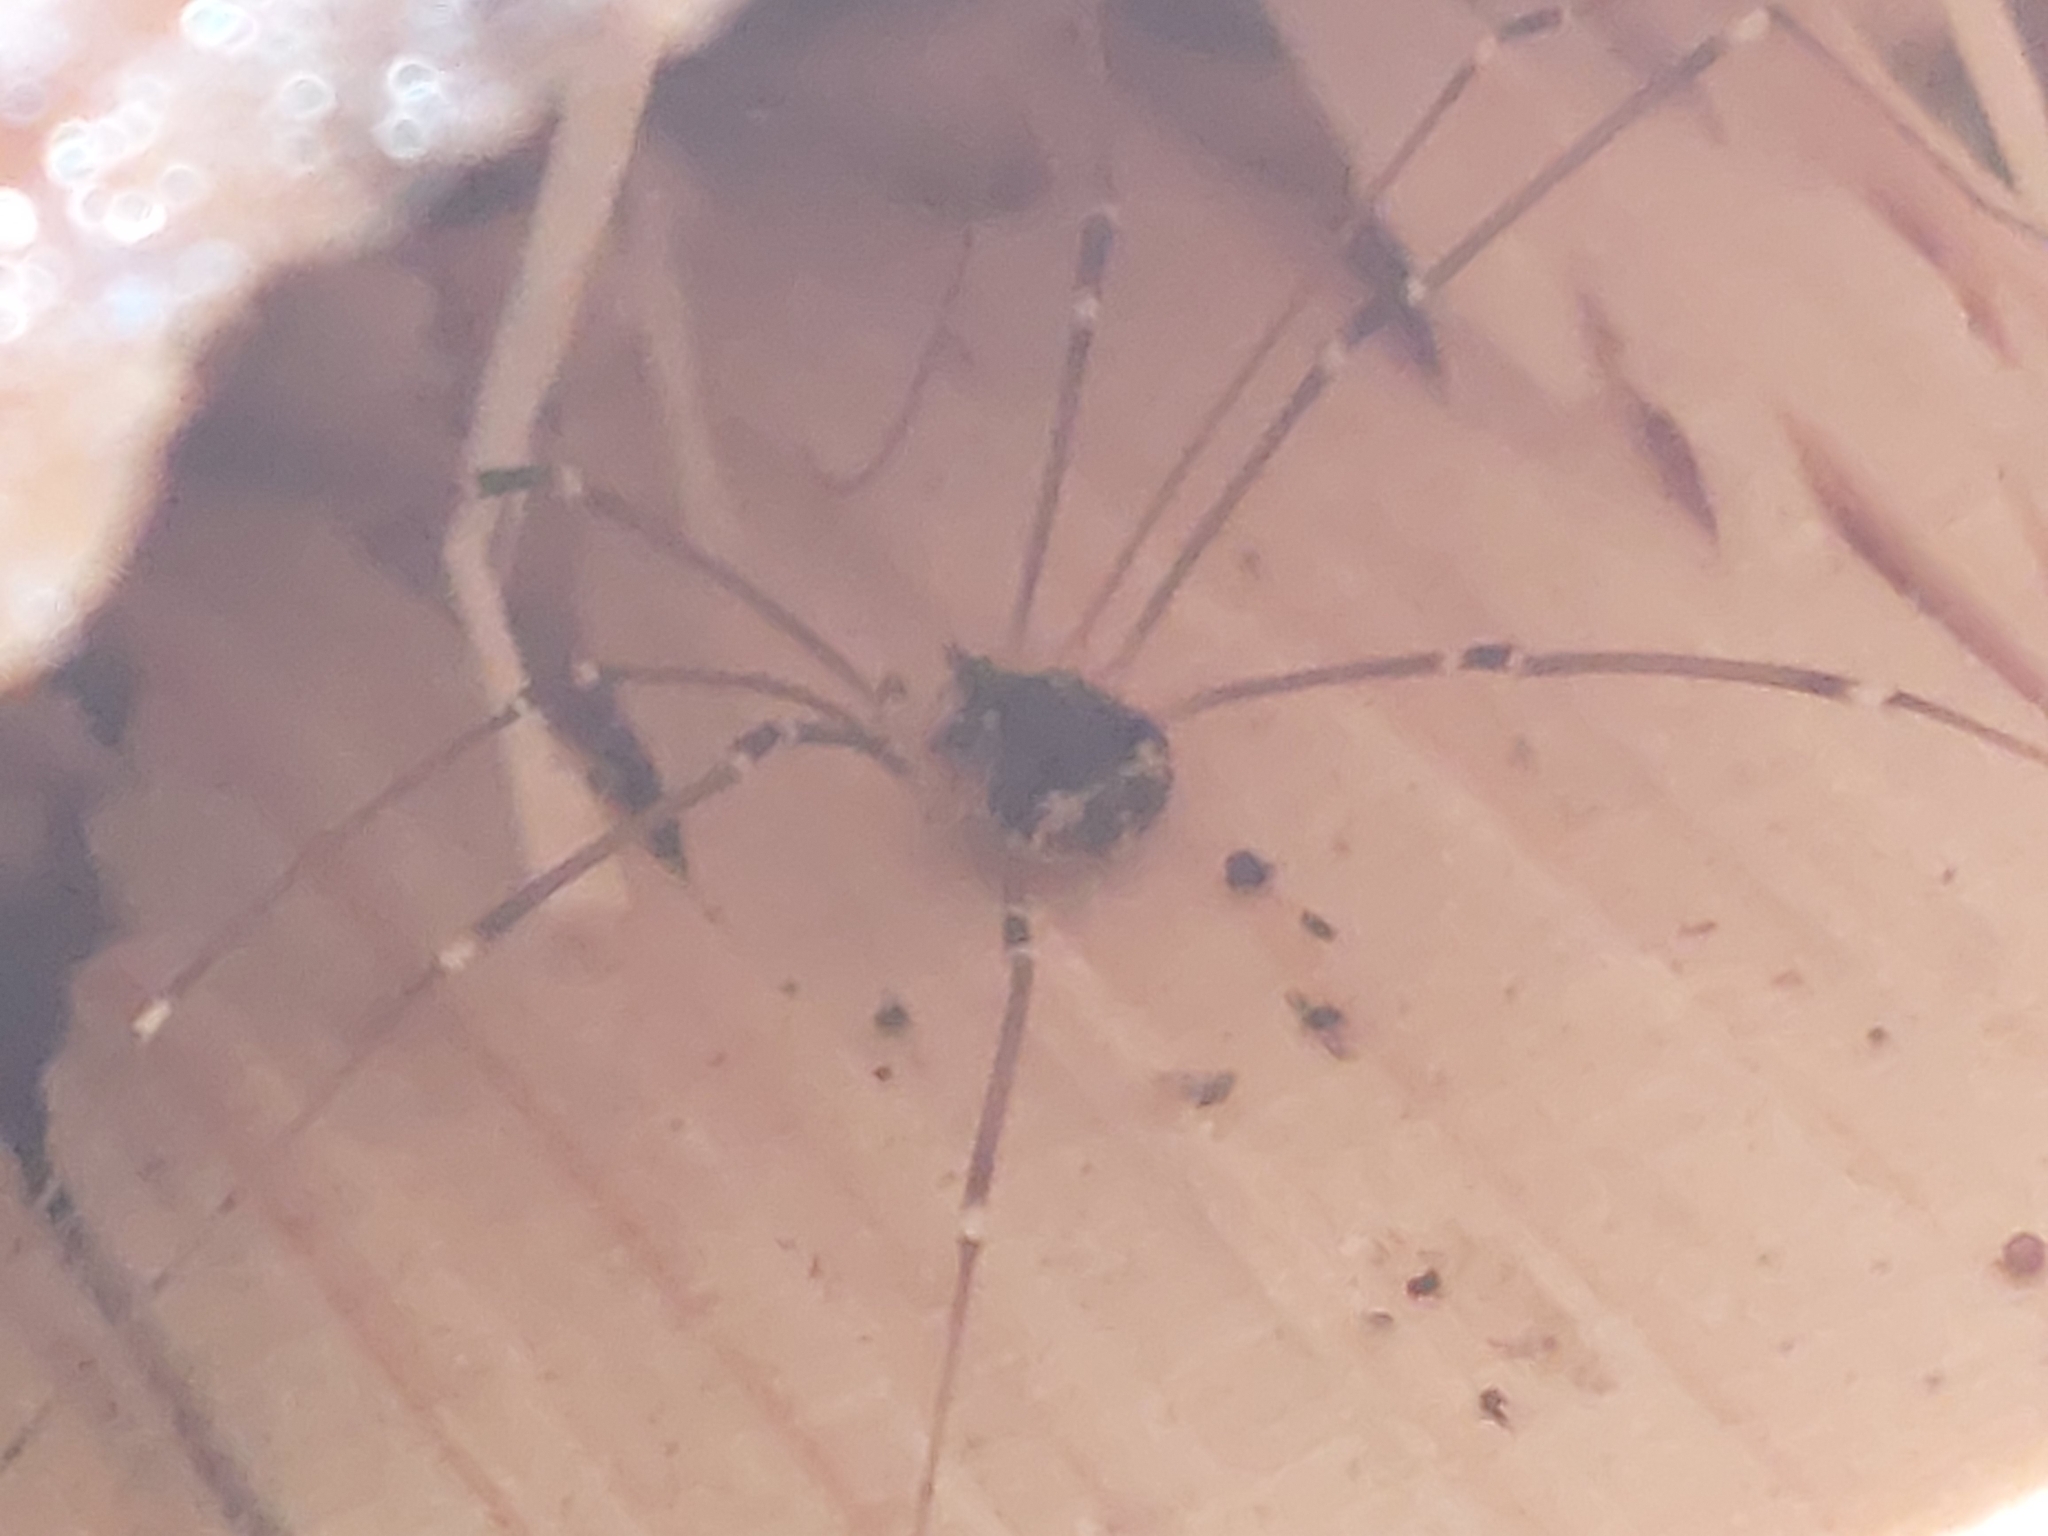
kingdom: Animalia
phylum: Arthropoda
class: Arachnida
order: Opiliones
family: Sclerosomatidae
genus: Leiobunum
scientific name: Leiobunum gracile
